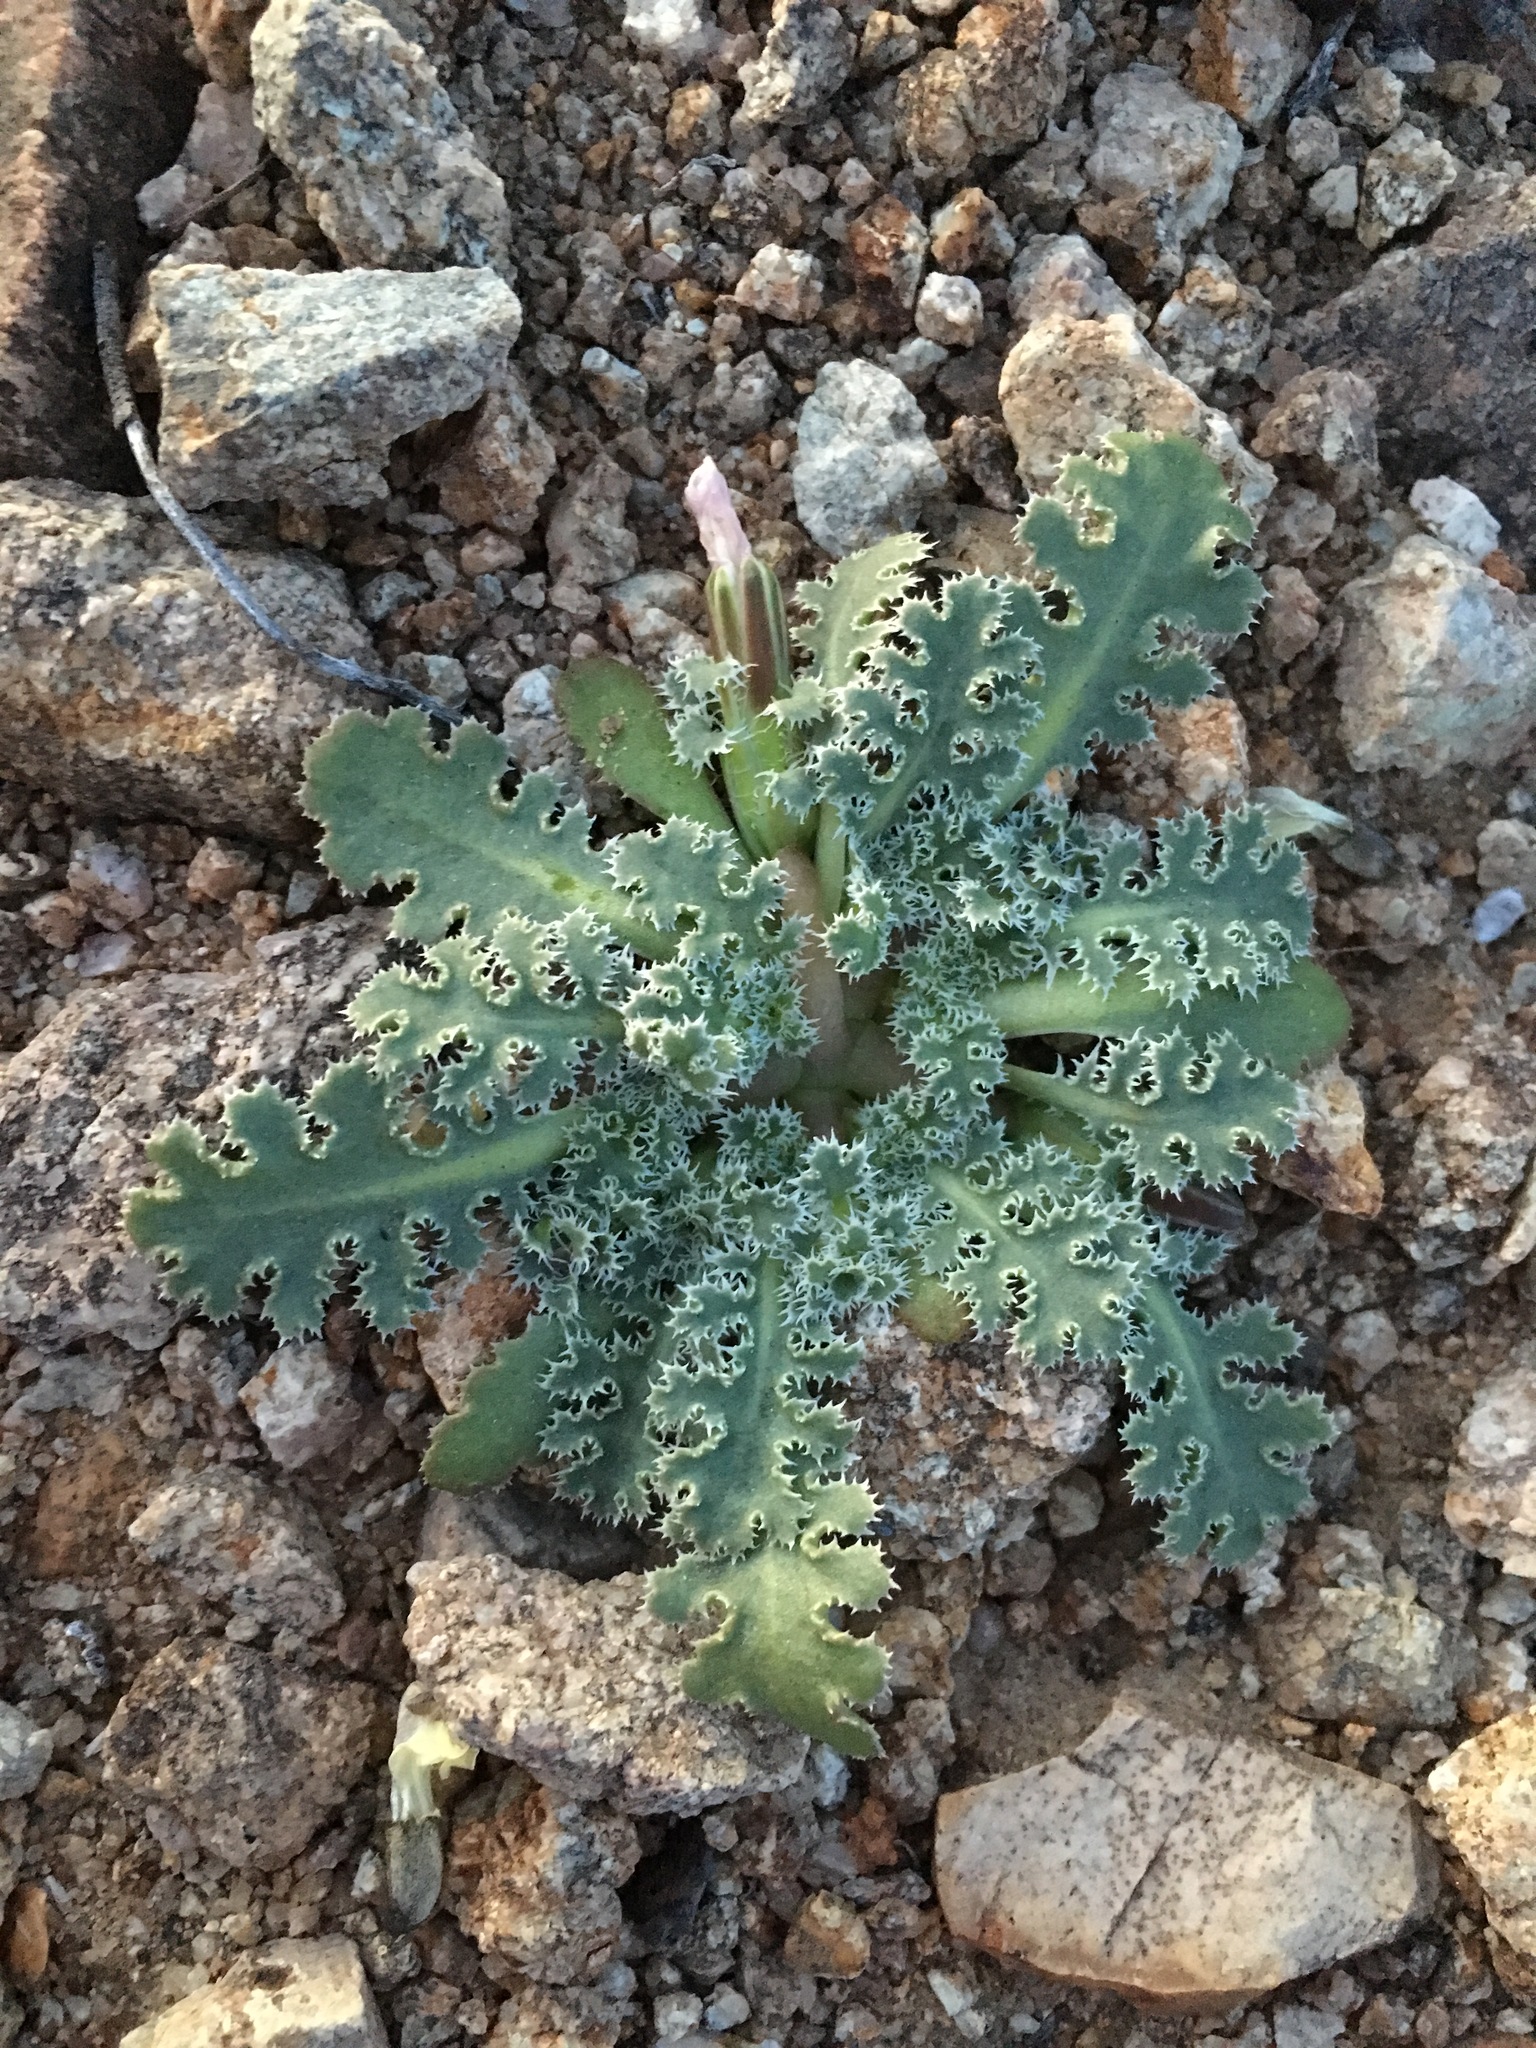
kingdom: Plantae
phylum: Tracheophyta
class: Magnoliopsida
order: Asterales
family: Asteraceae
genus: Glyptopleura
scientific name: Glyptopleura marginata
